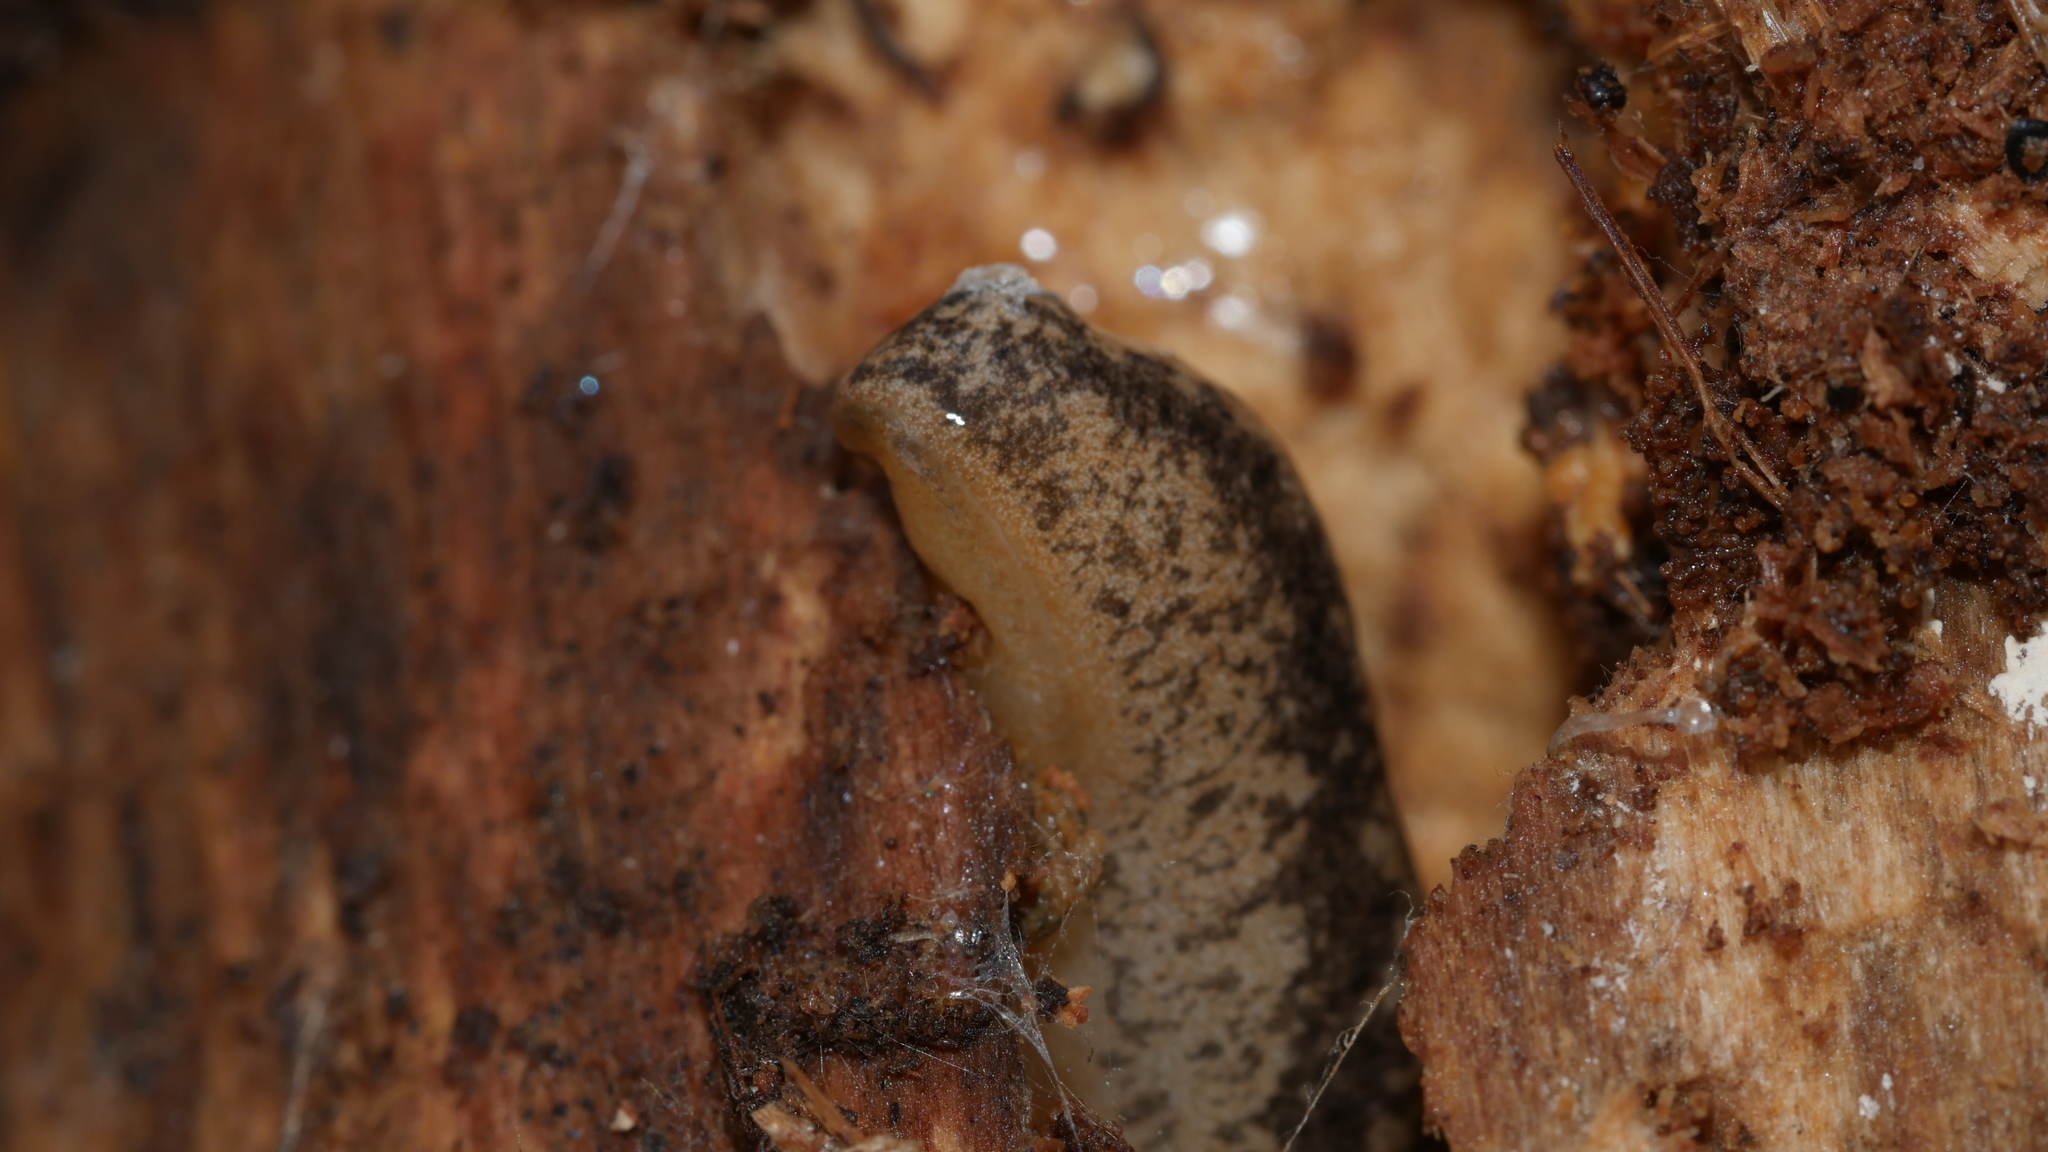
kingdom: Animalia
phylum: Mollusca
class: Gastropoda
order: Stylommatophora
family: Philomycidae
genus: Philomycus
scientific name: Philomycus
